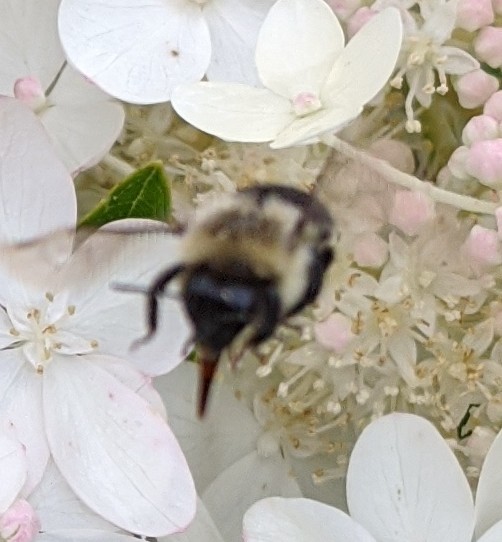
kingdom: Animalia
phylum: Arthropoda
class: Insecta
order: Hymenoptera
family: Apidae
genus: Bombus
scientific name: Bombus impatiens
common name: Common eastern bumble bee
